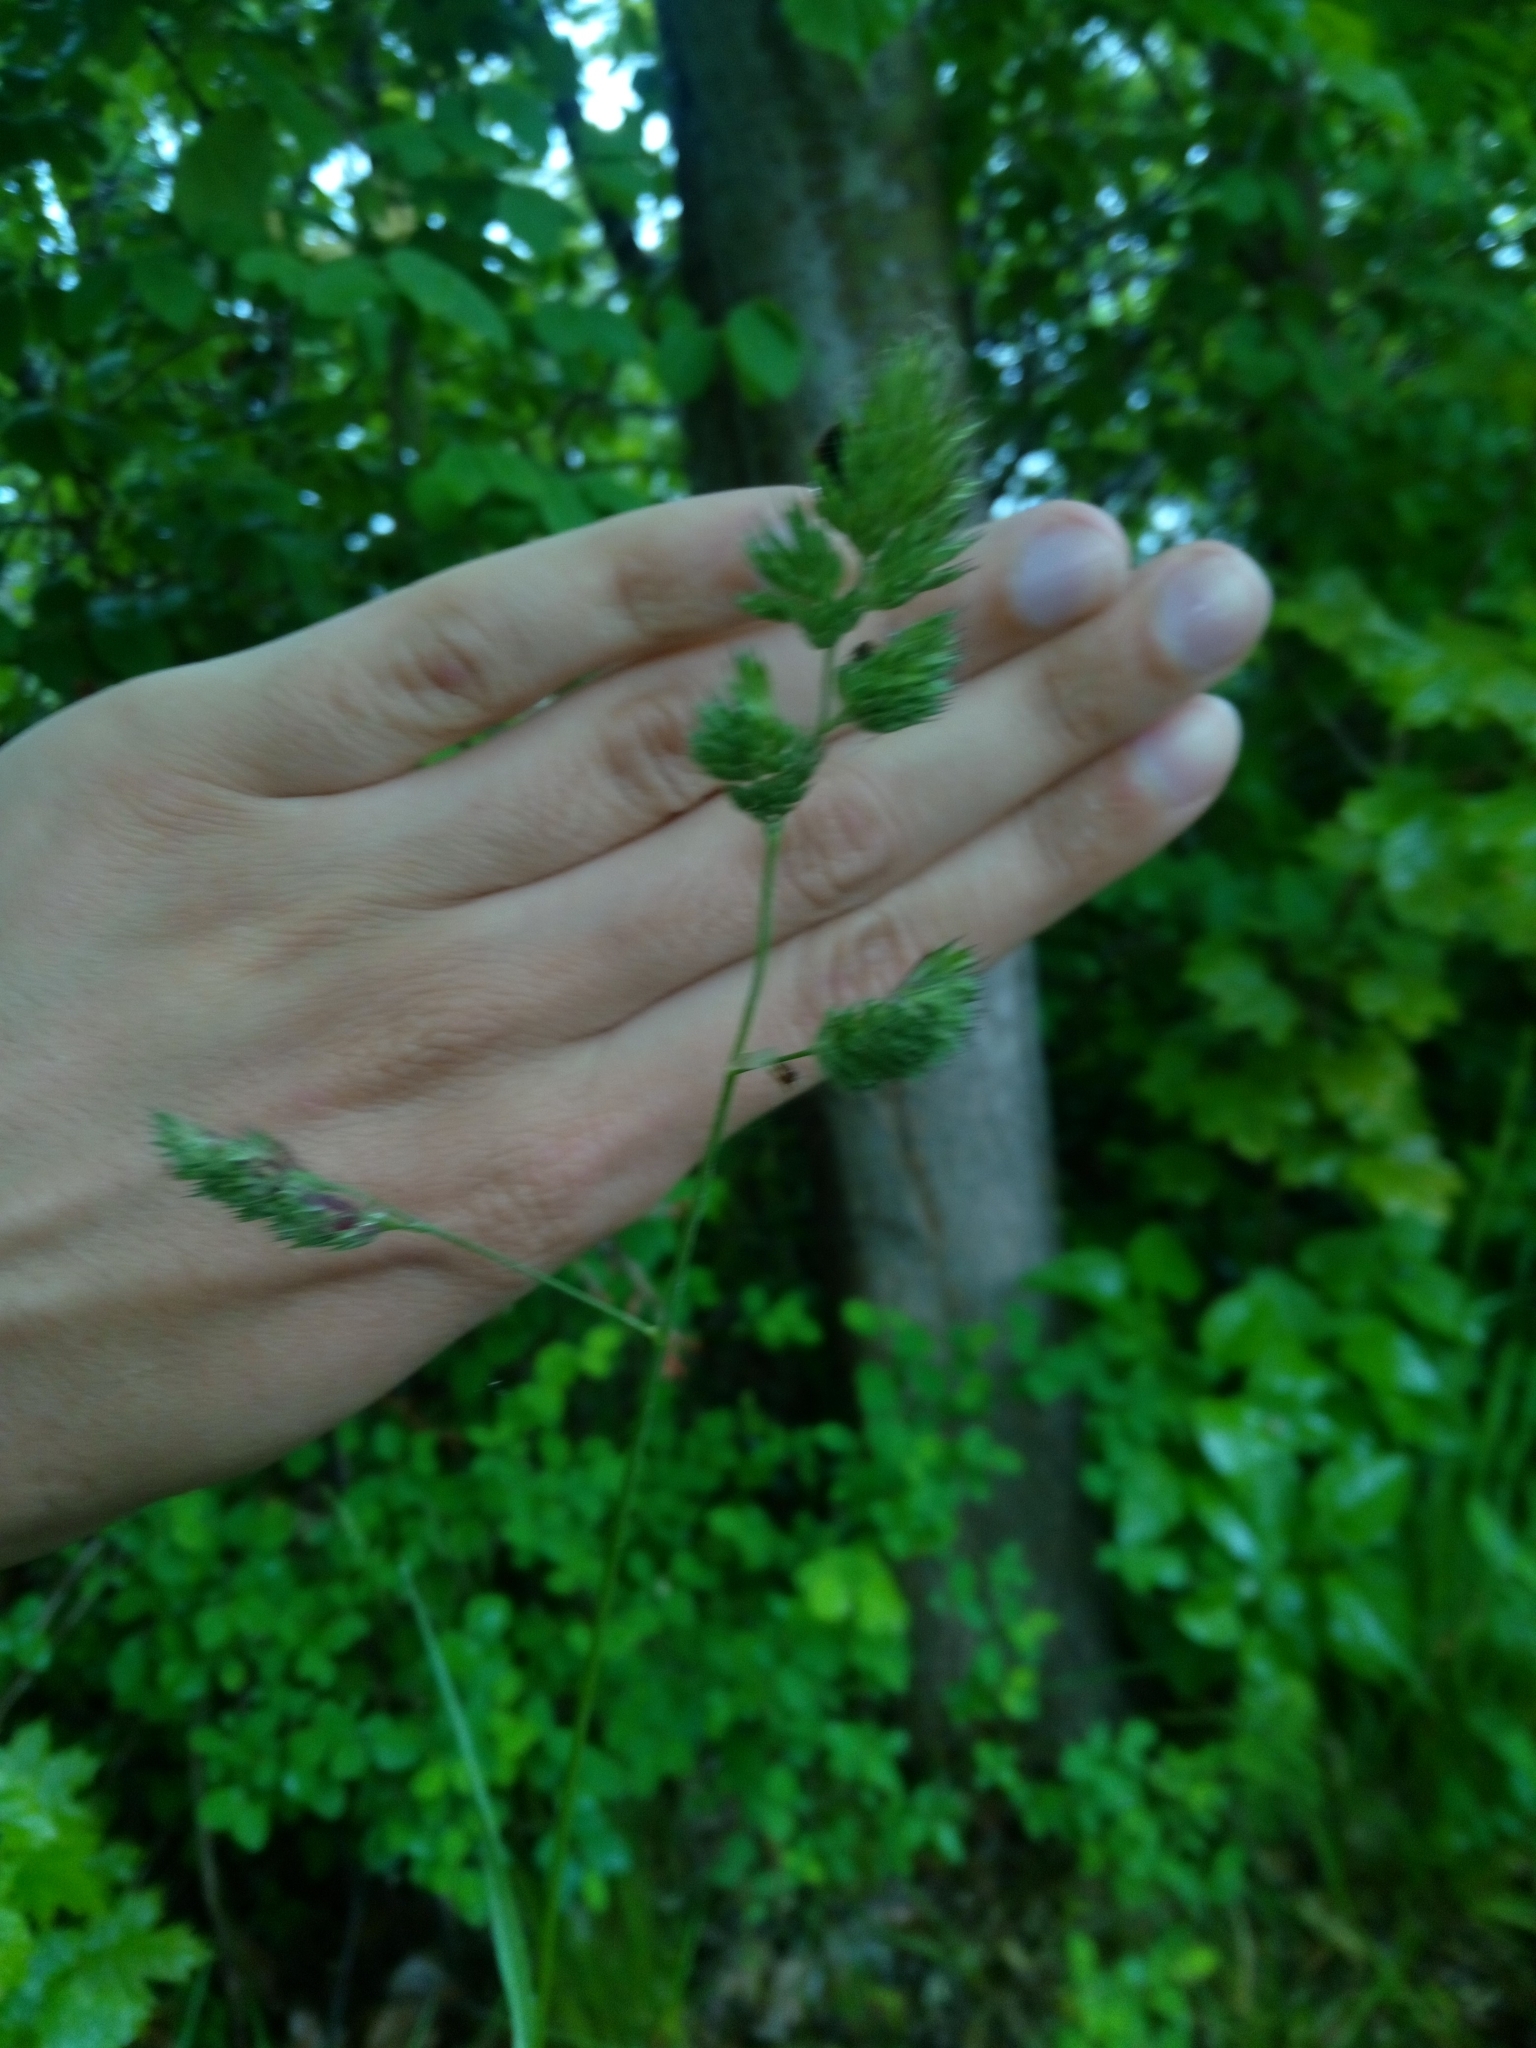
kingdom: Plantae
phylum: Tracheophyta
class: Liliopsida
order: Poales
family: Poaceae
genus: Dactylis
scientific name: Dactylis glomerata
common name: Orchardgrass
